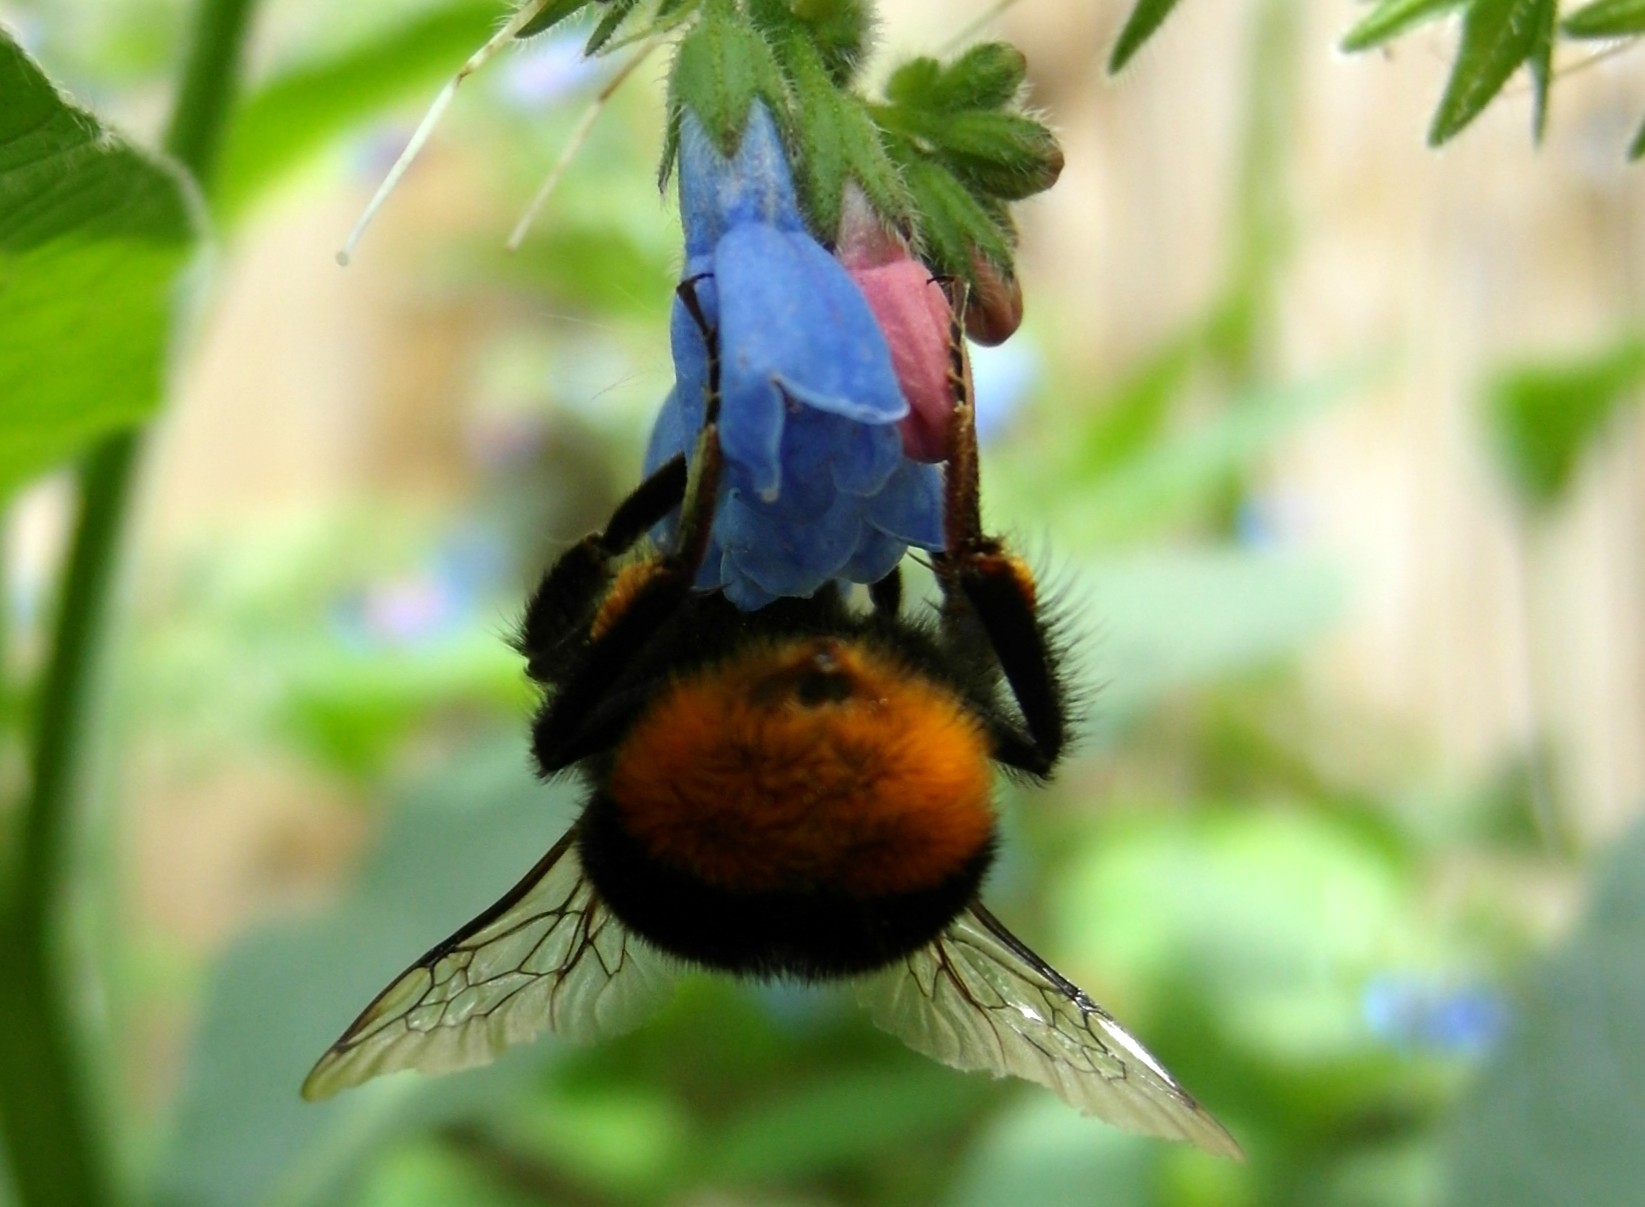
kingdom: Animalia
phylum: Arthropoda
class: Insecta
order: Hymenoptera
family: Apidae
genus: Bombus
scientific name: Bombus
